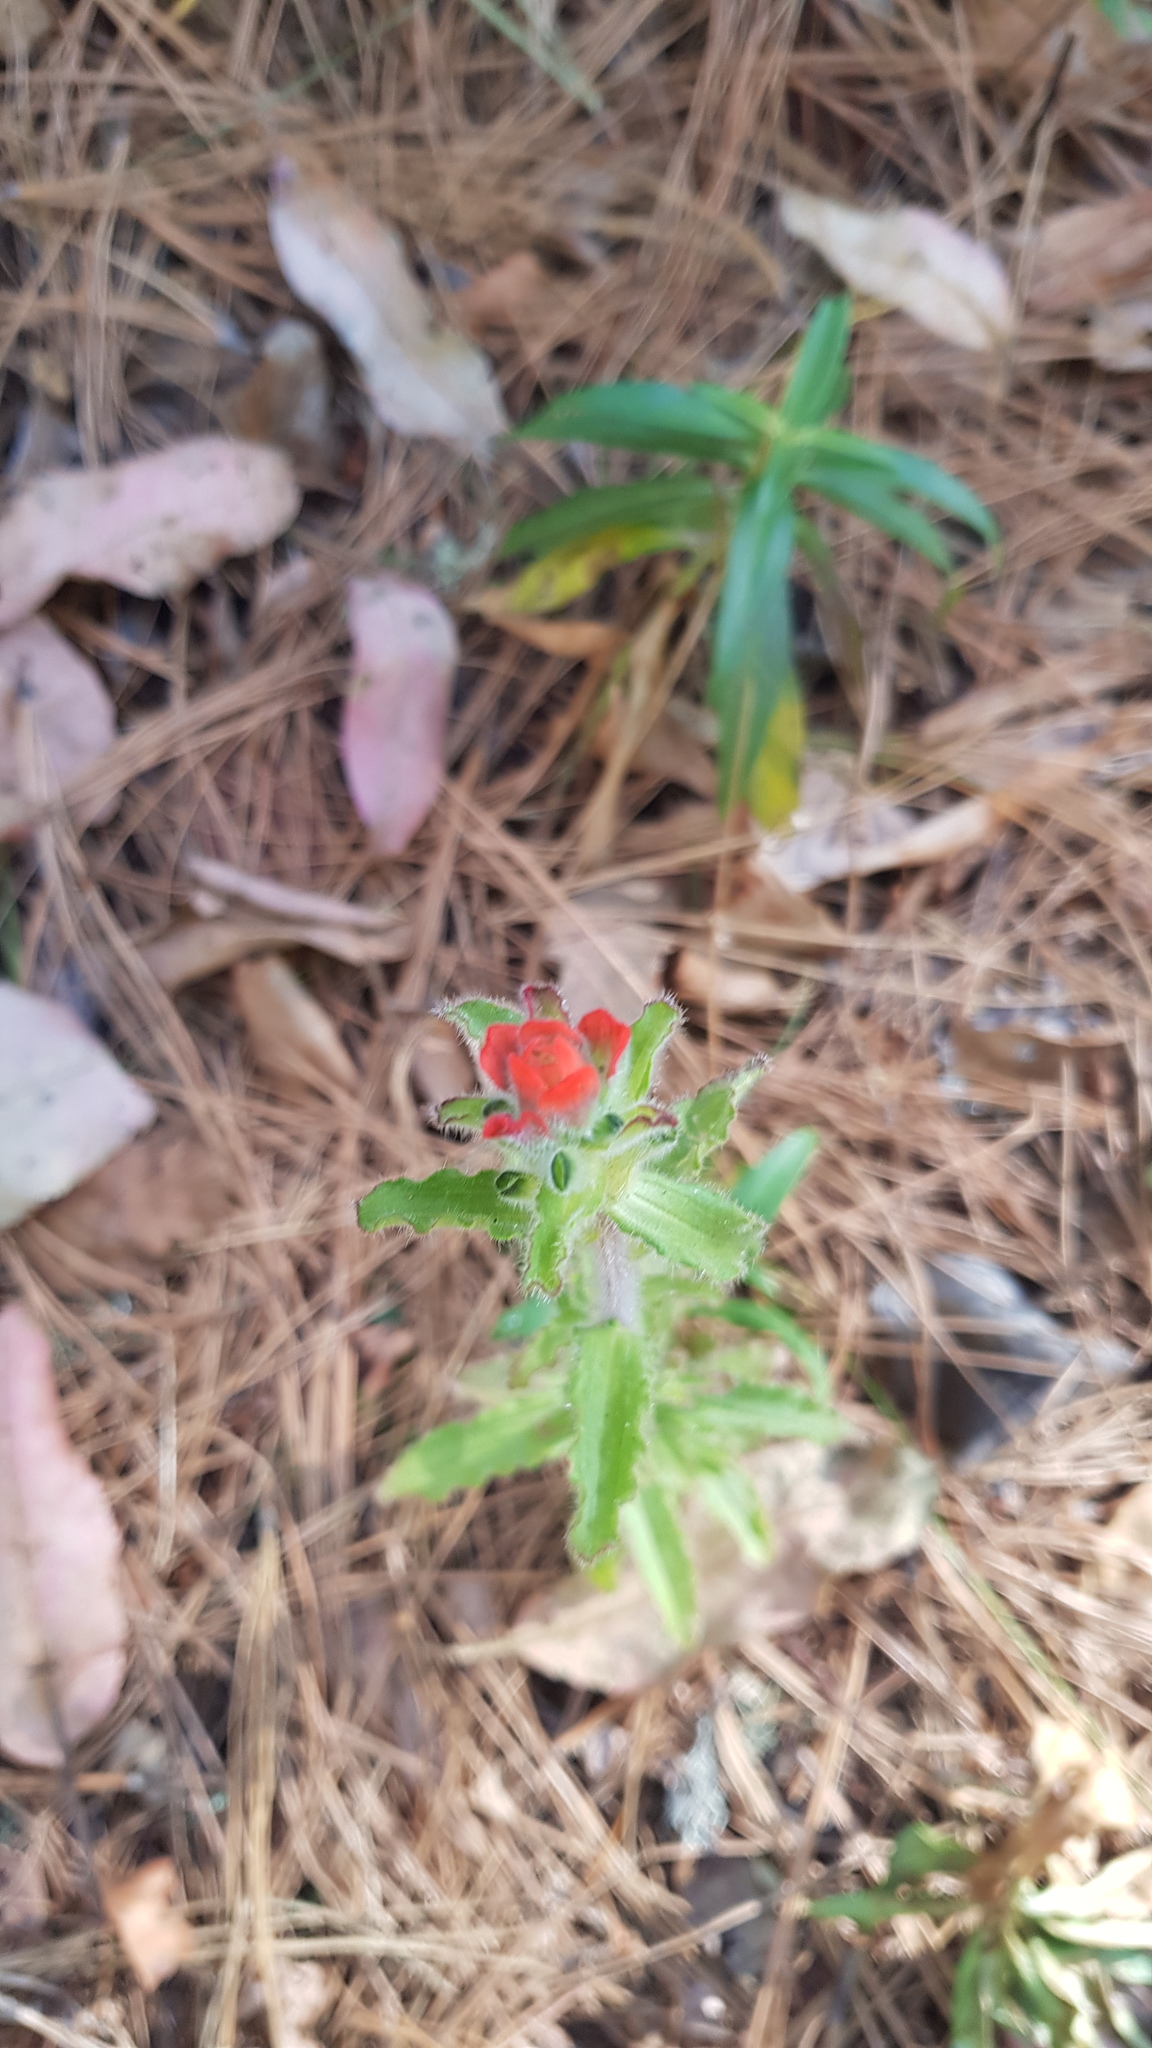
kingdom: Plantae
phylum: Tracheophyta
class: Magnoliopsida
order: Lamiales
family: Orobanchaceae
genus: Castilleja
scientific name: Castilleja arvensis
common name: Indian paintbrush
